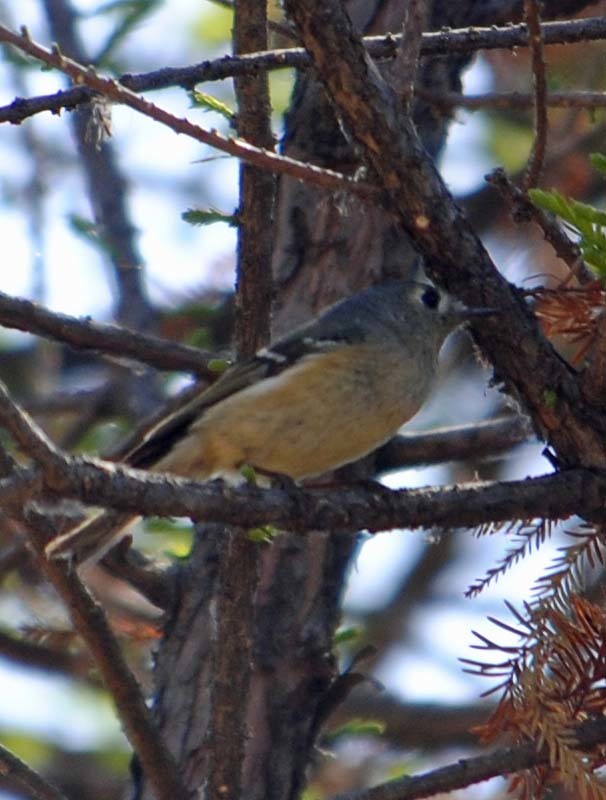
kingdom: Animalia
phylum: Chordata
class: Aves
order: Passeriformes
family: Regulidae
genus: Regulus
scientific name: Regulus calendula
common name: Ruby-crowned kinglet
